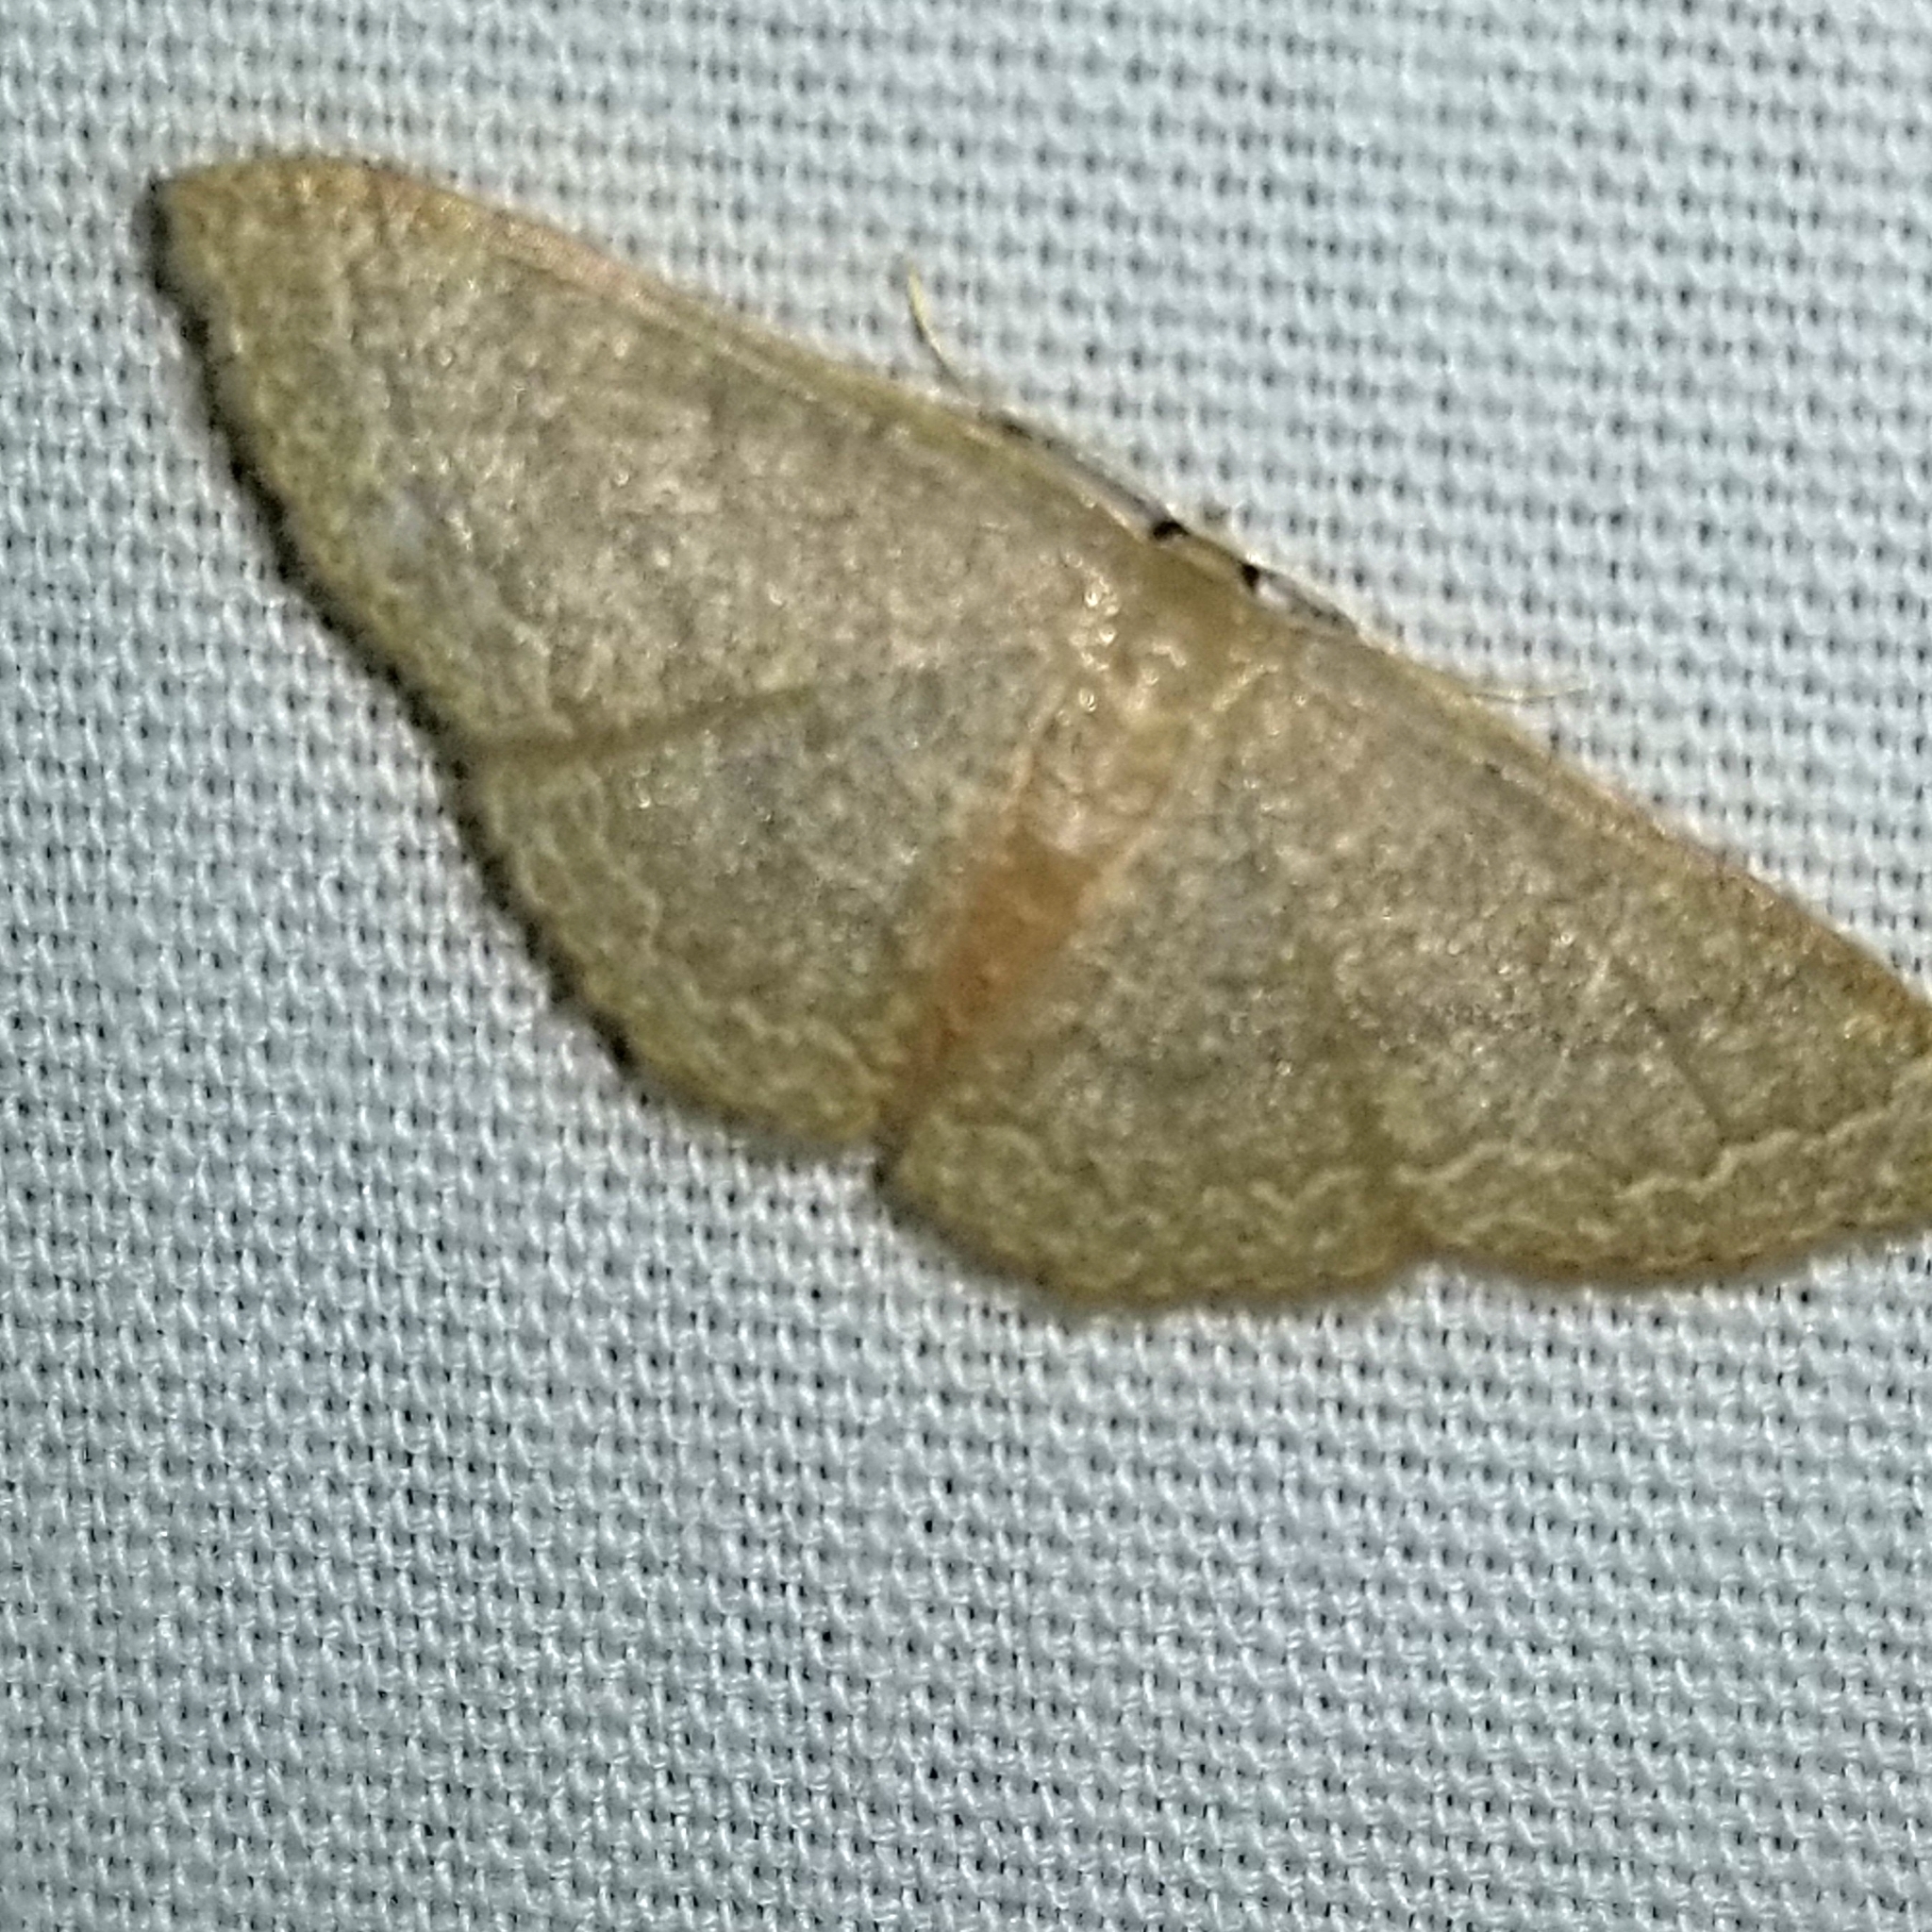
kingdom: Animalia
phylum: Arthropoda
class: Insecta
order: Lepidoptera
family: Geometridae
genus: Pleuroprucha
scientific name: Pleuroprucha insulsaria
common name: Common tan wave
